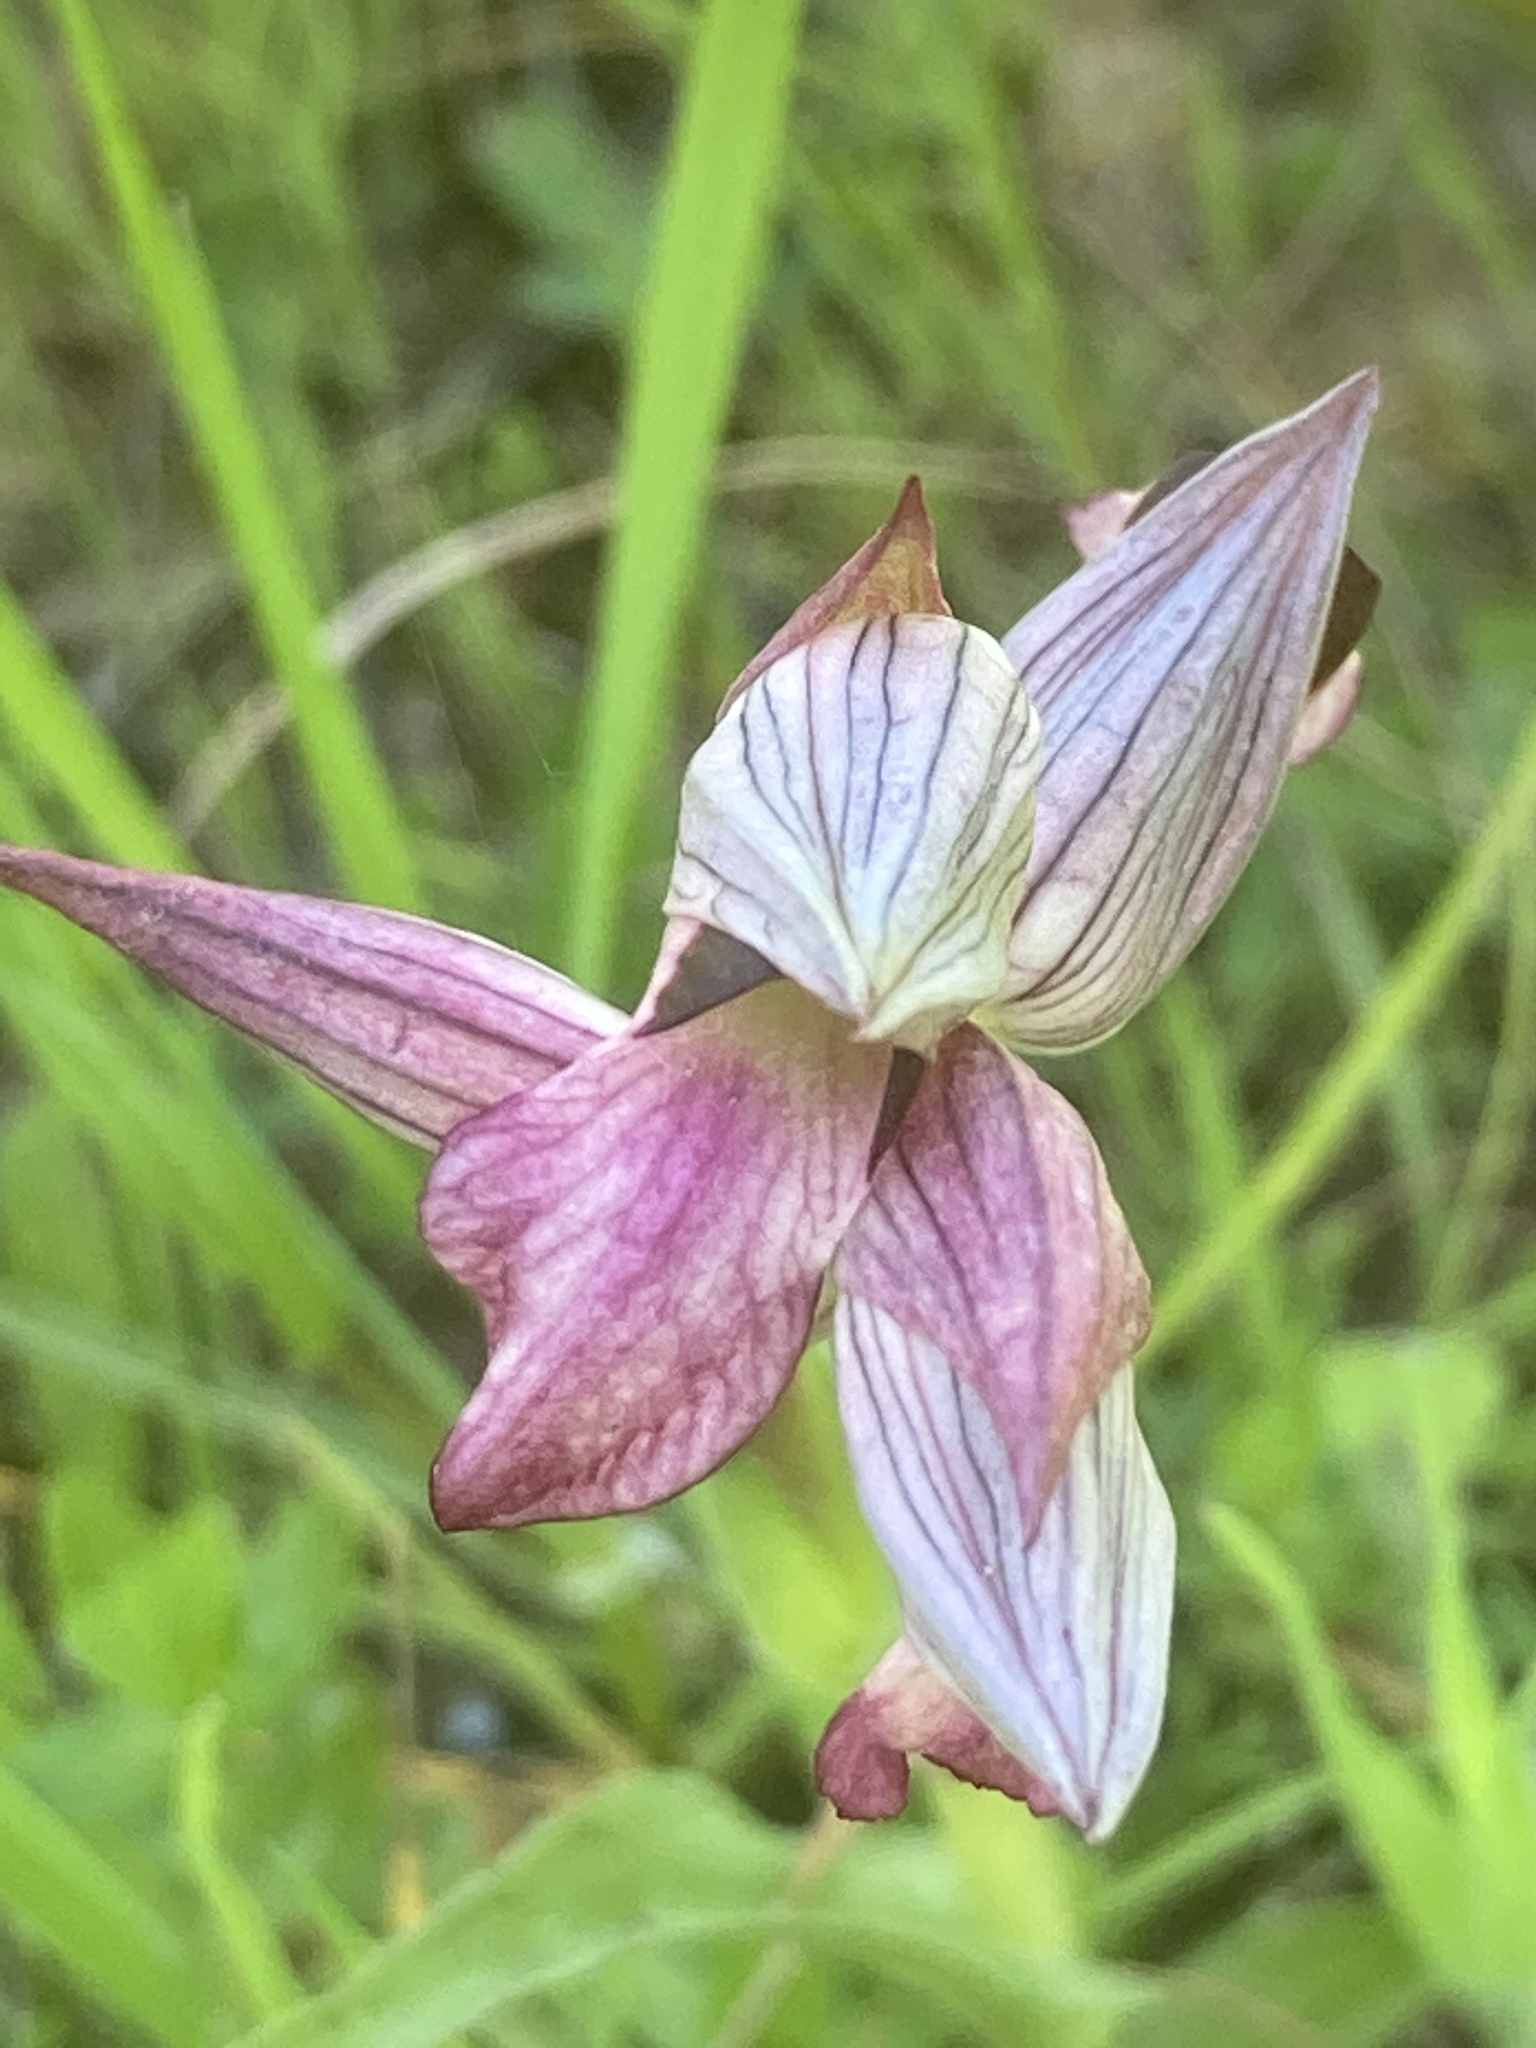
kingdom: Plantae
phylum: Tracheophyta
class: Liliopsida
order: Asparagales
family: Orchidaceae
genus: Serapias
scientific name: Serapias lingua
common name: Tongue-orchid
